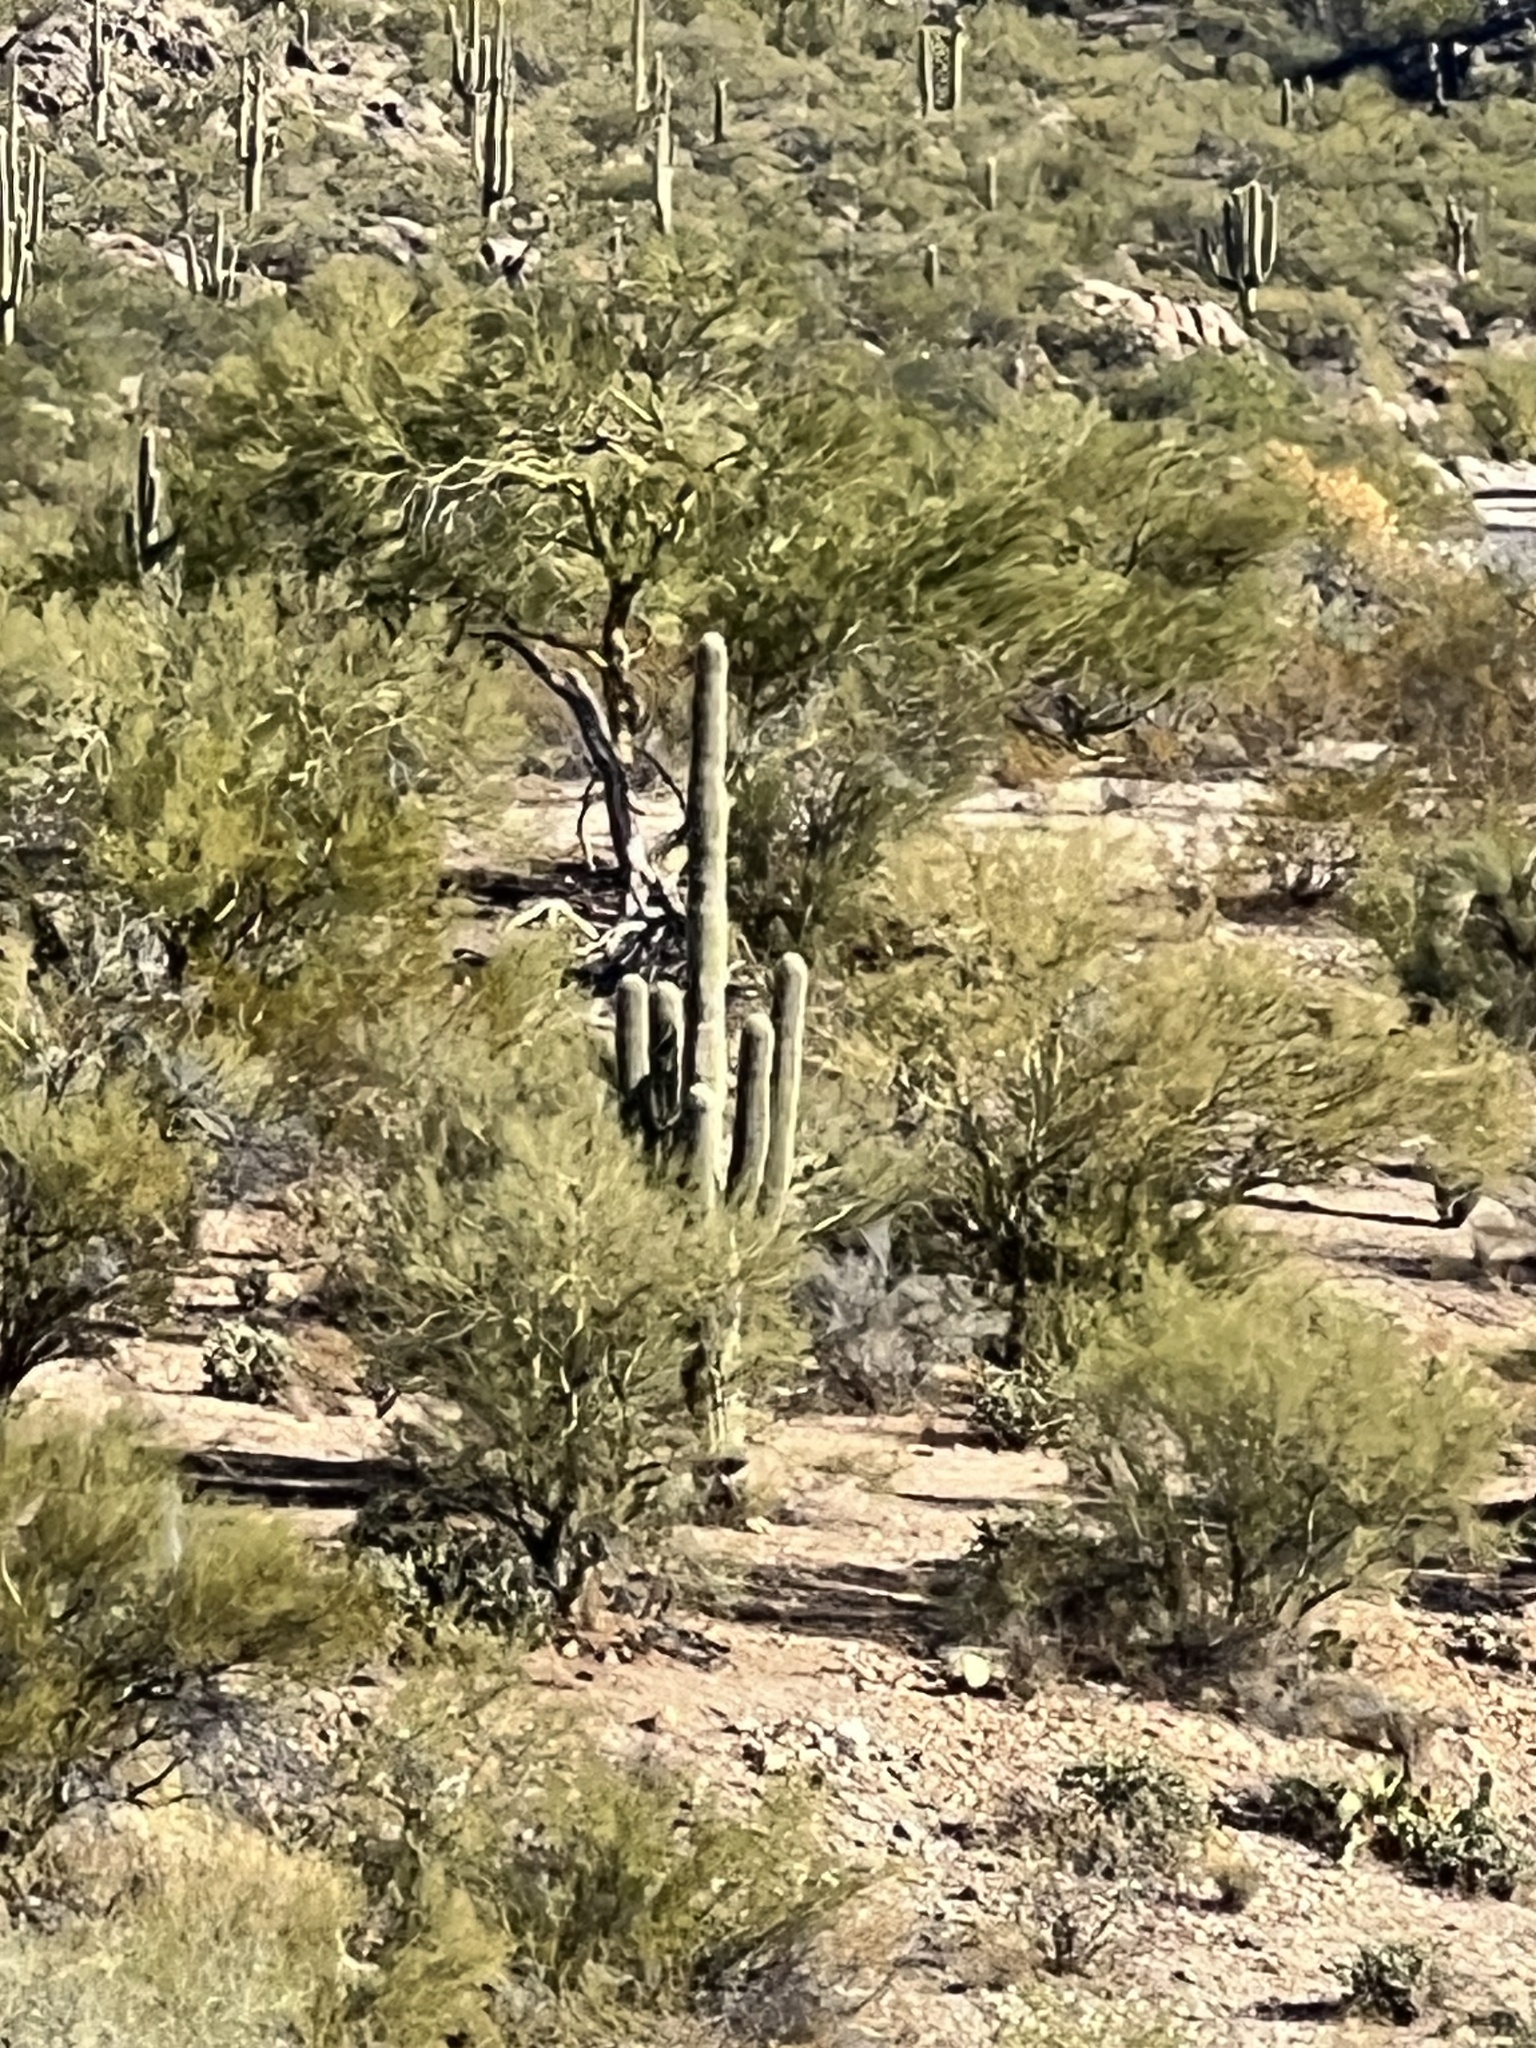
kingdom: Plantae
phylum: Tracheophyta
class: Magnoliopsida
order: Caryophyllales
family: Cactaceae
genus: Carnegiea
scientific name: Carnegiea gigantea
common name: Saguaro
